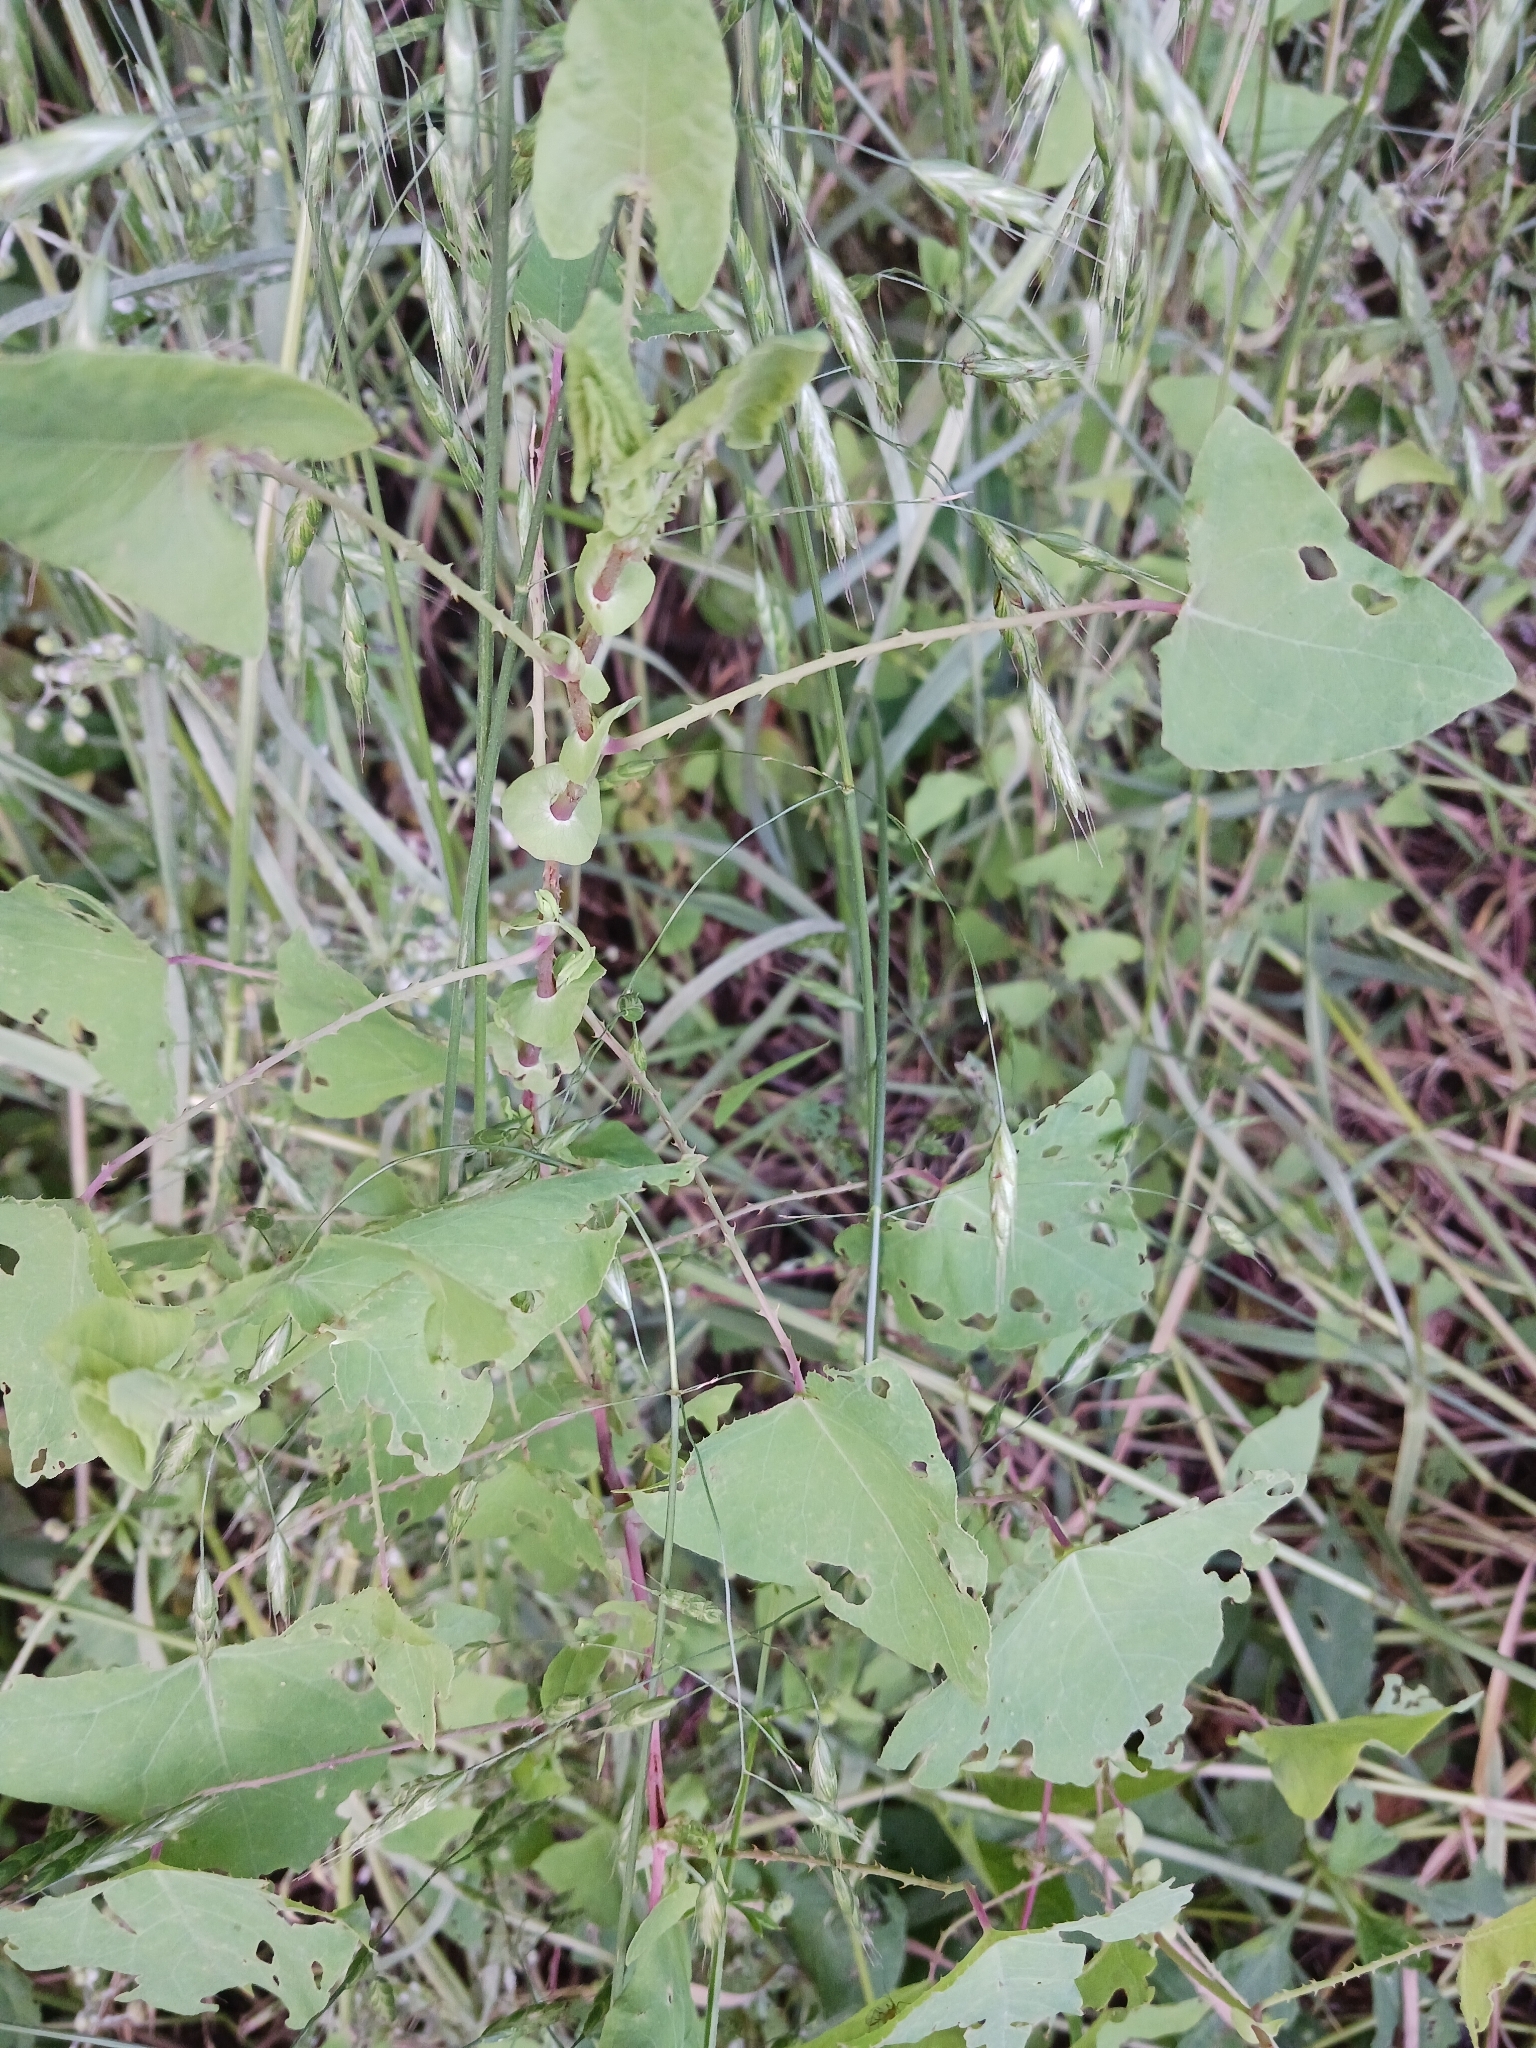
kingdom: Plantae
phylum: Tracheophyta
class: Magnoliopsida
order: Caryophyllales
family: Polygonaceae
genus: Persicaria
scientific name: Persicaria perfoliata
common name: Asiatic tearthumb
